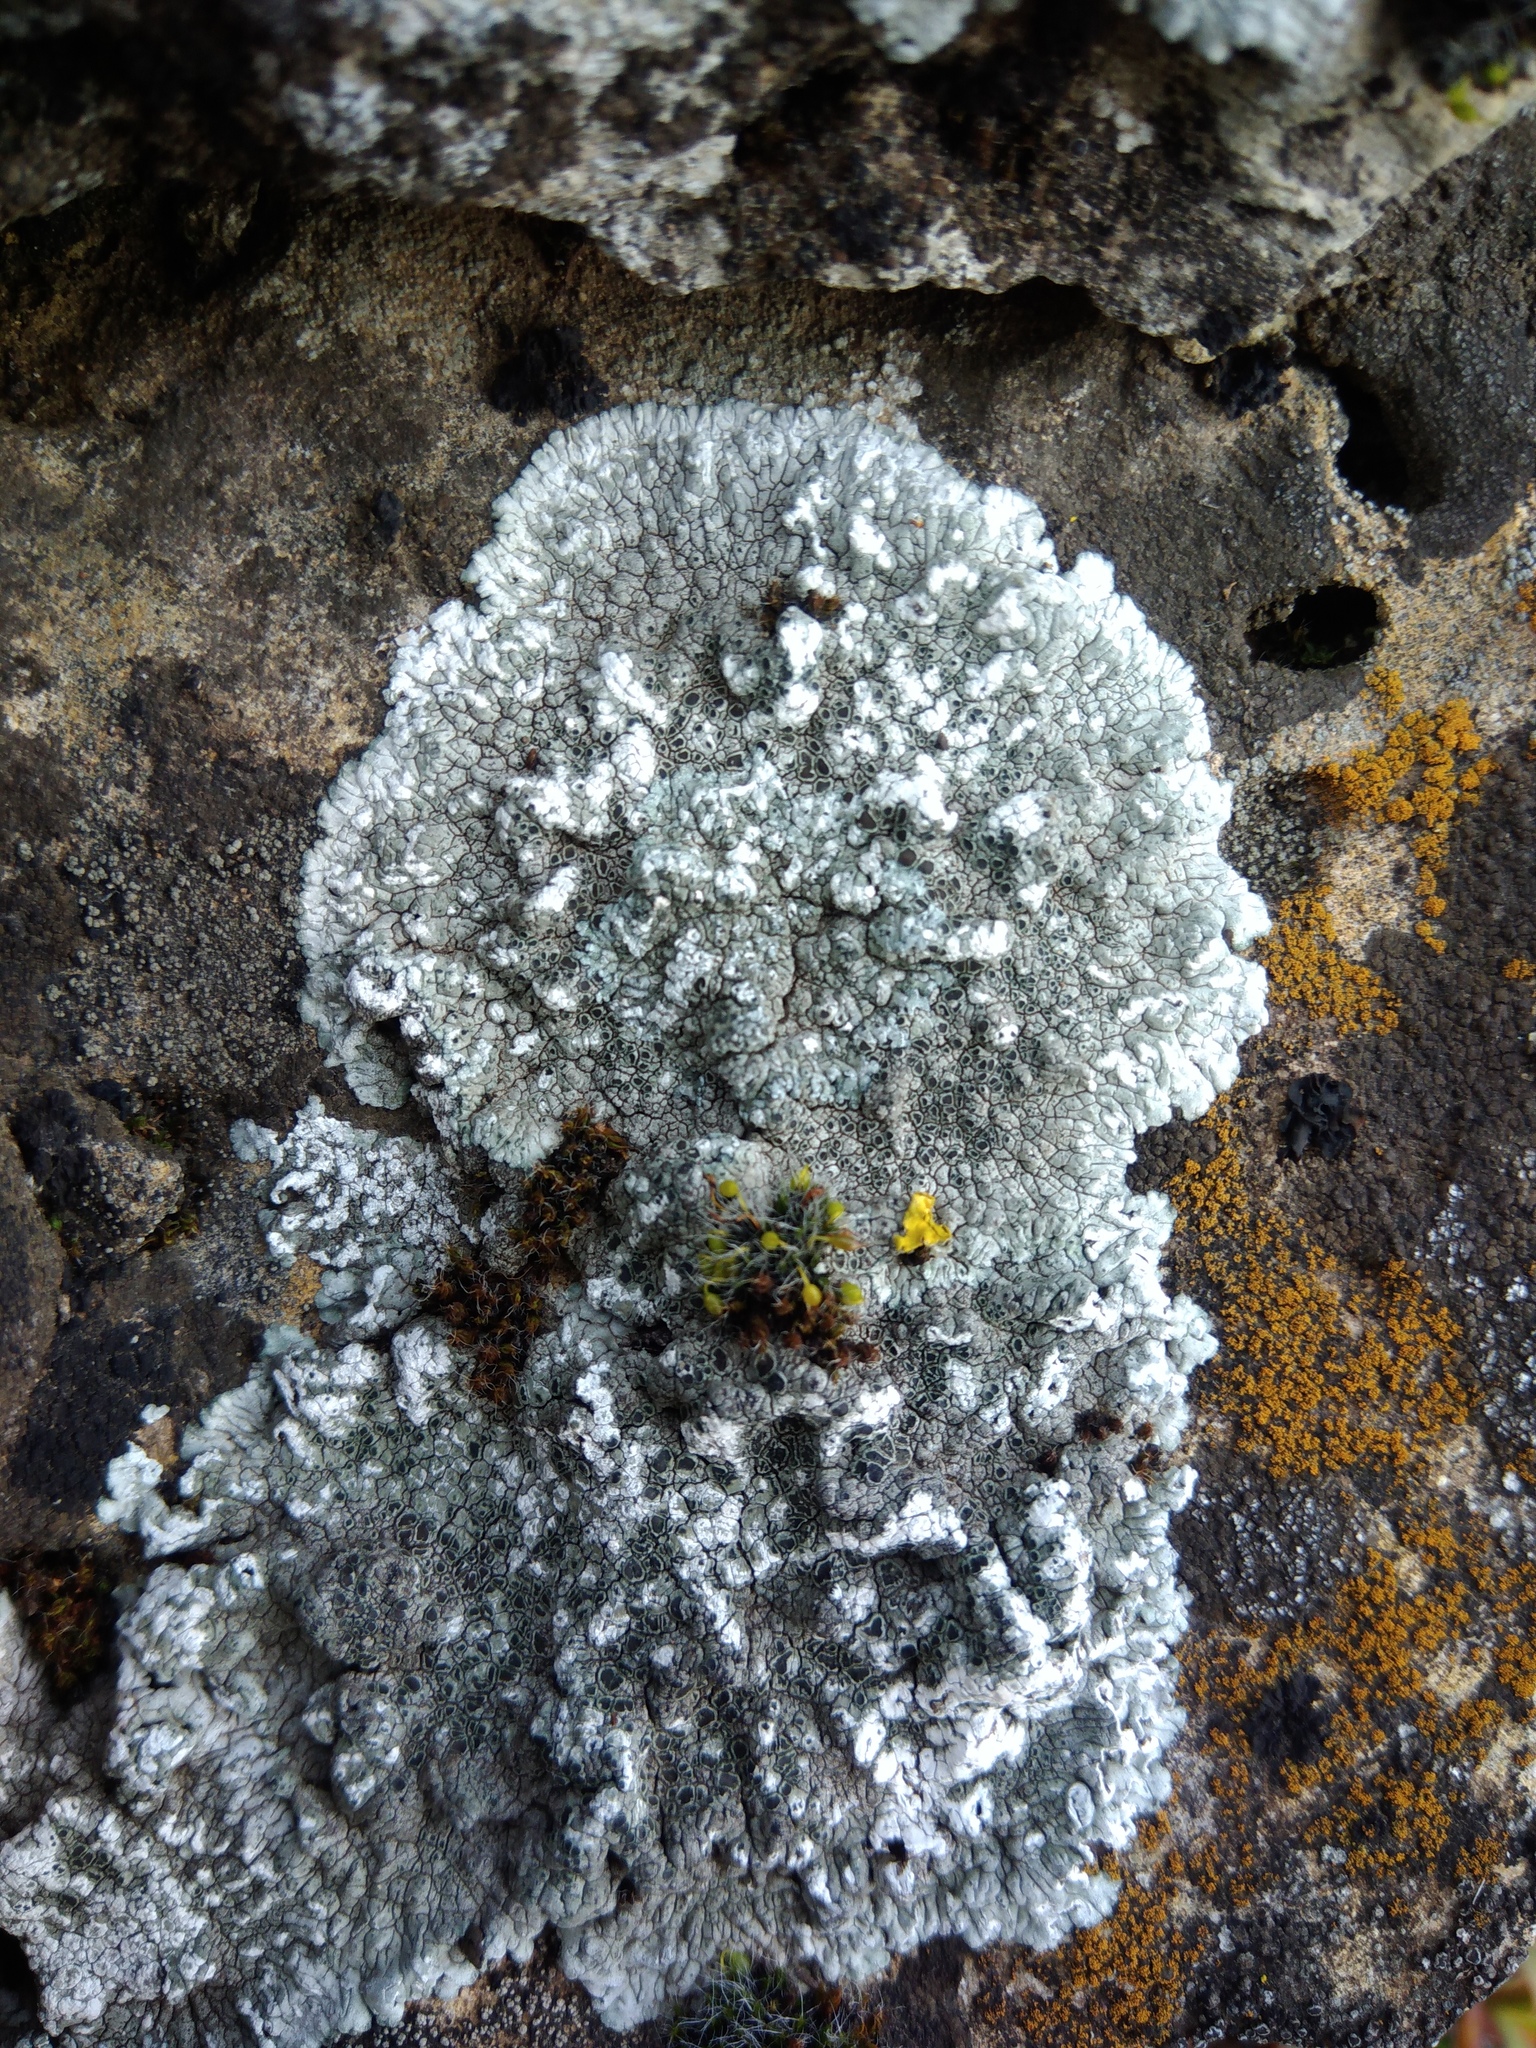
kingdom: Fungi
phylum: Ascomycota
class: Lecanoromycetes
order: Pertusariales
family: Megasporaceae
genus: Lobothallia
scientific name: Lobothallia radiosa
